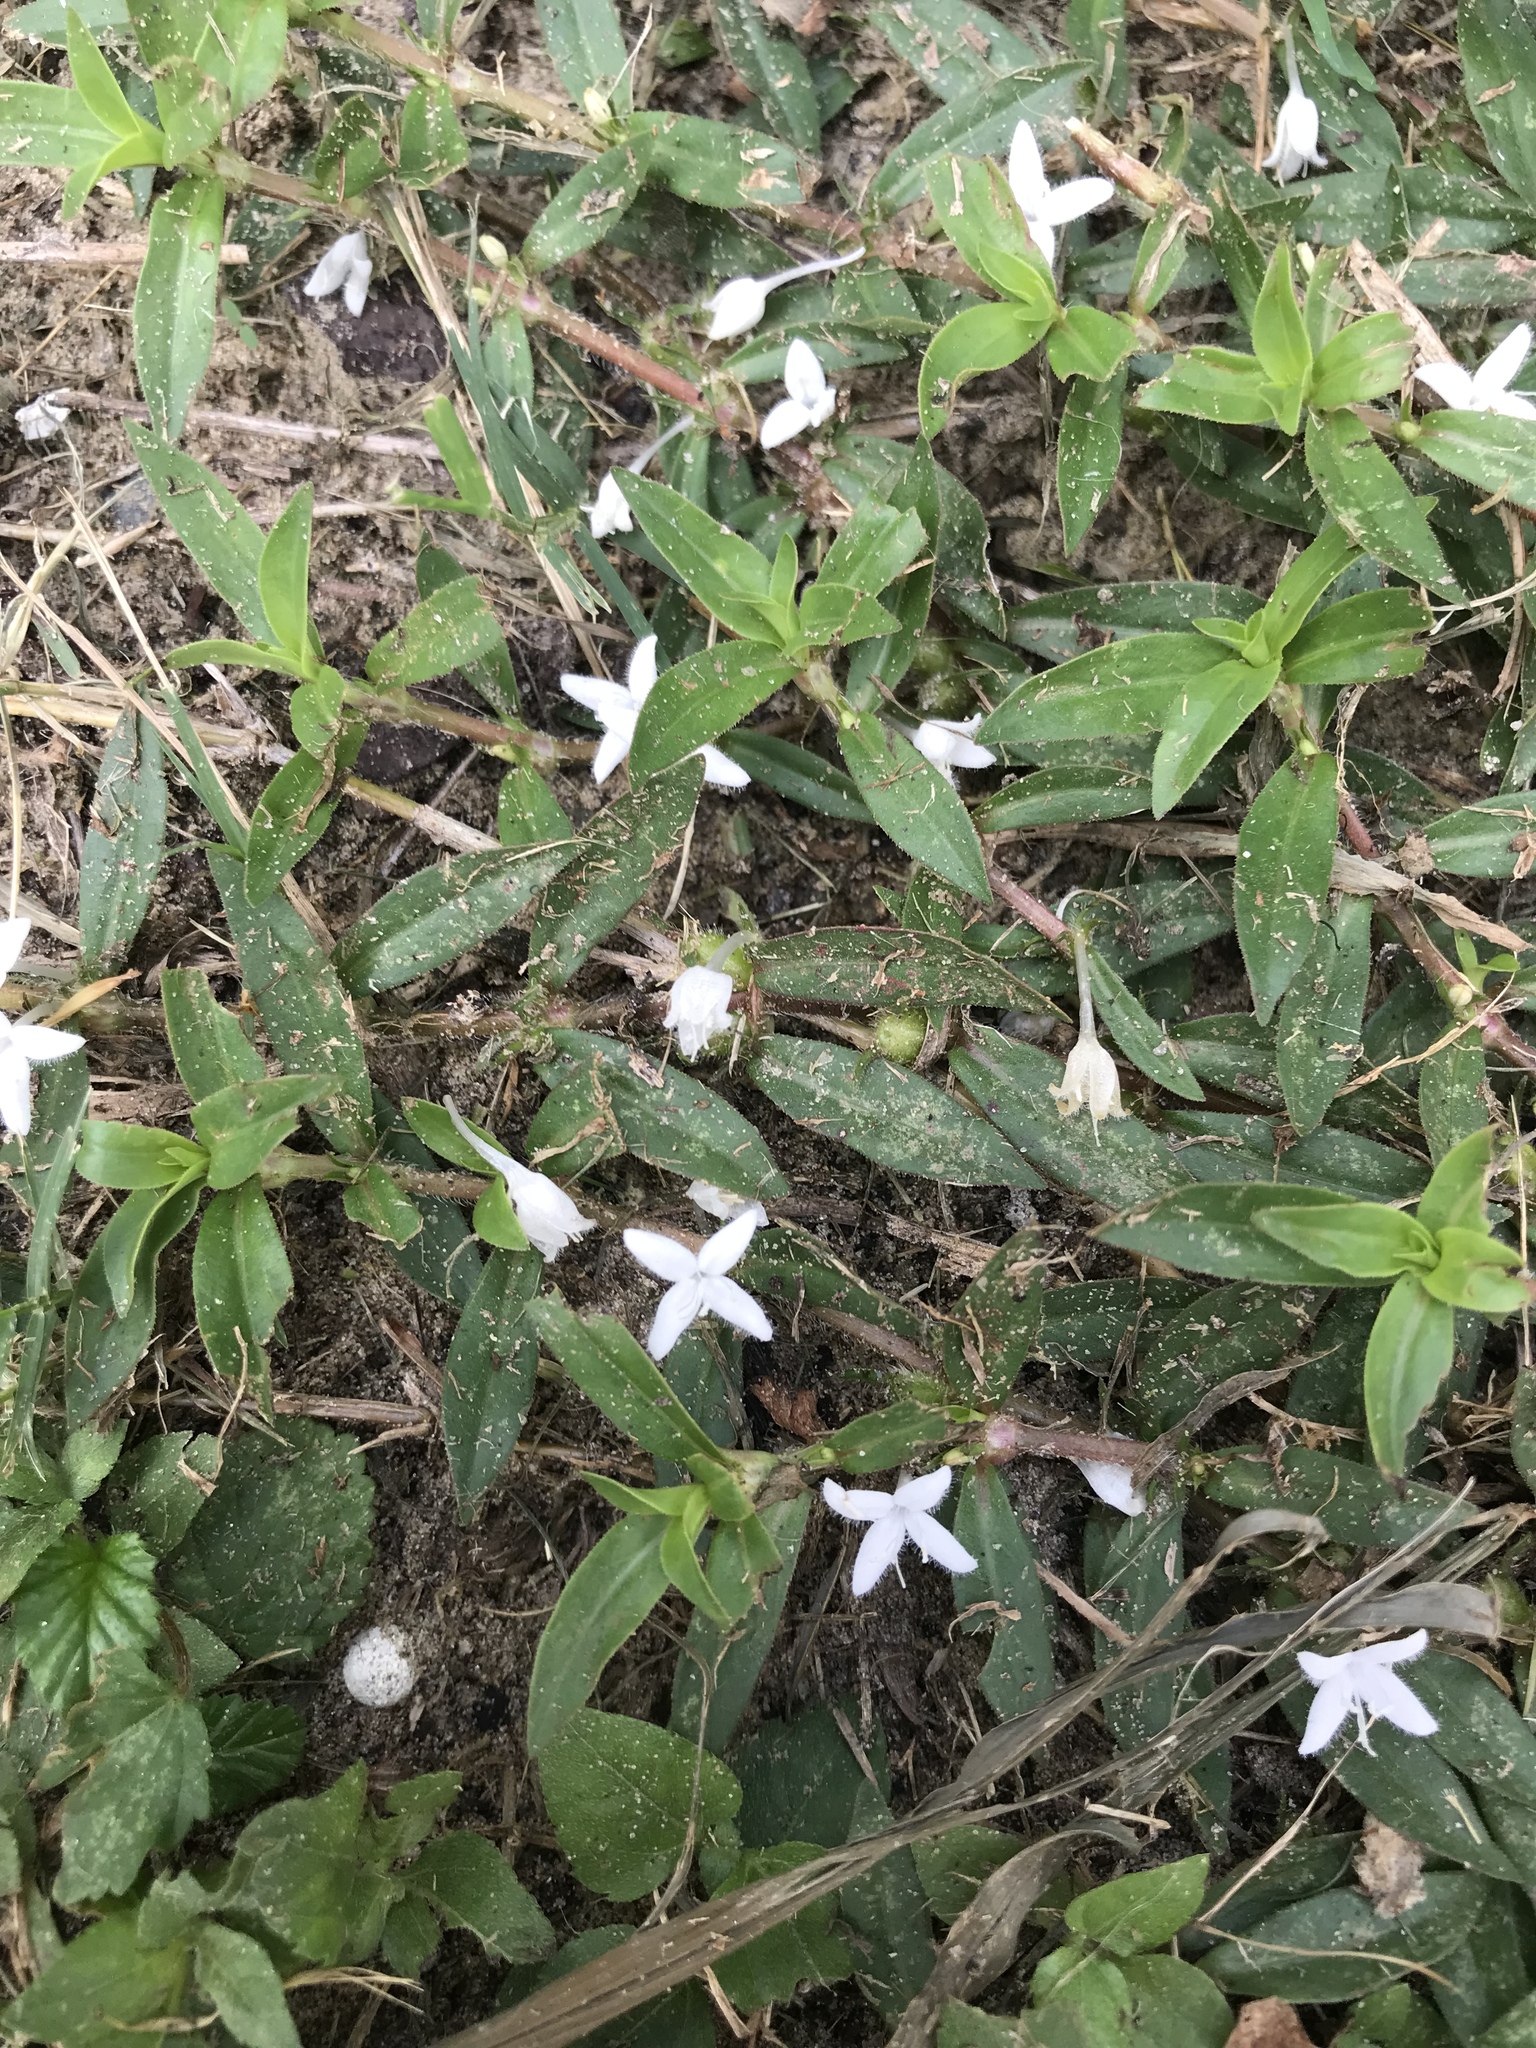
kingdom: Plantae
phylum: Tracheophyta
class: Magnoliopsida
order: Gentianales
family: Rubiaceae
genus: Diodia
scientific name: Diodia virginiana
